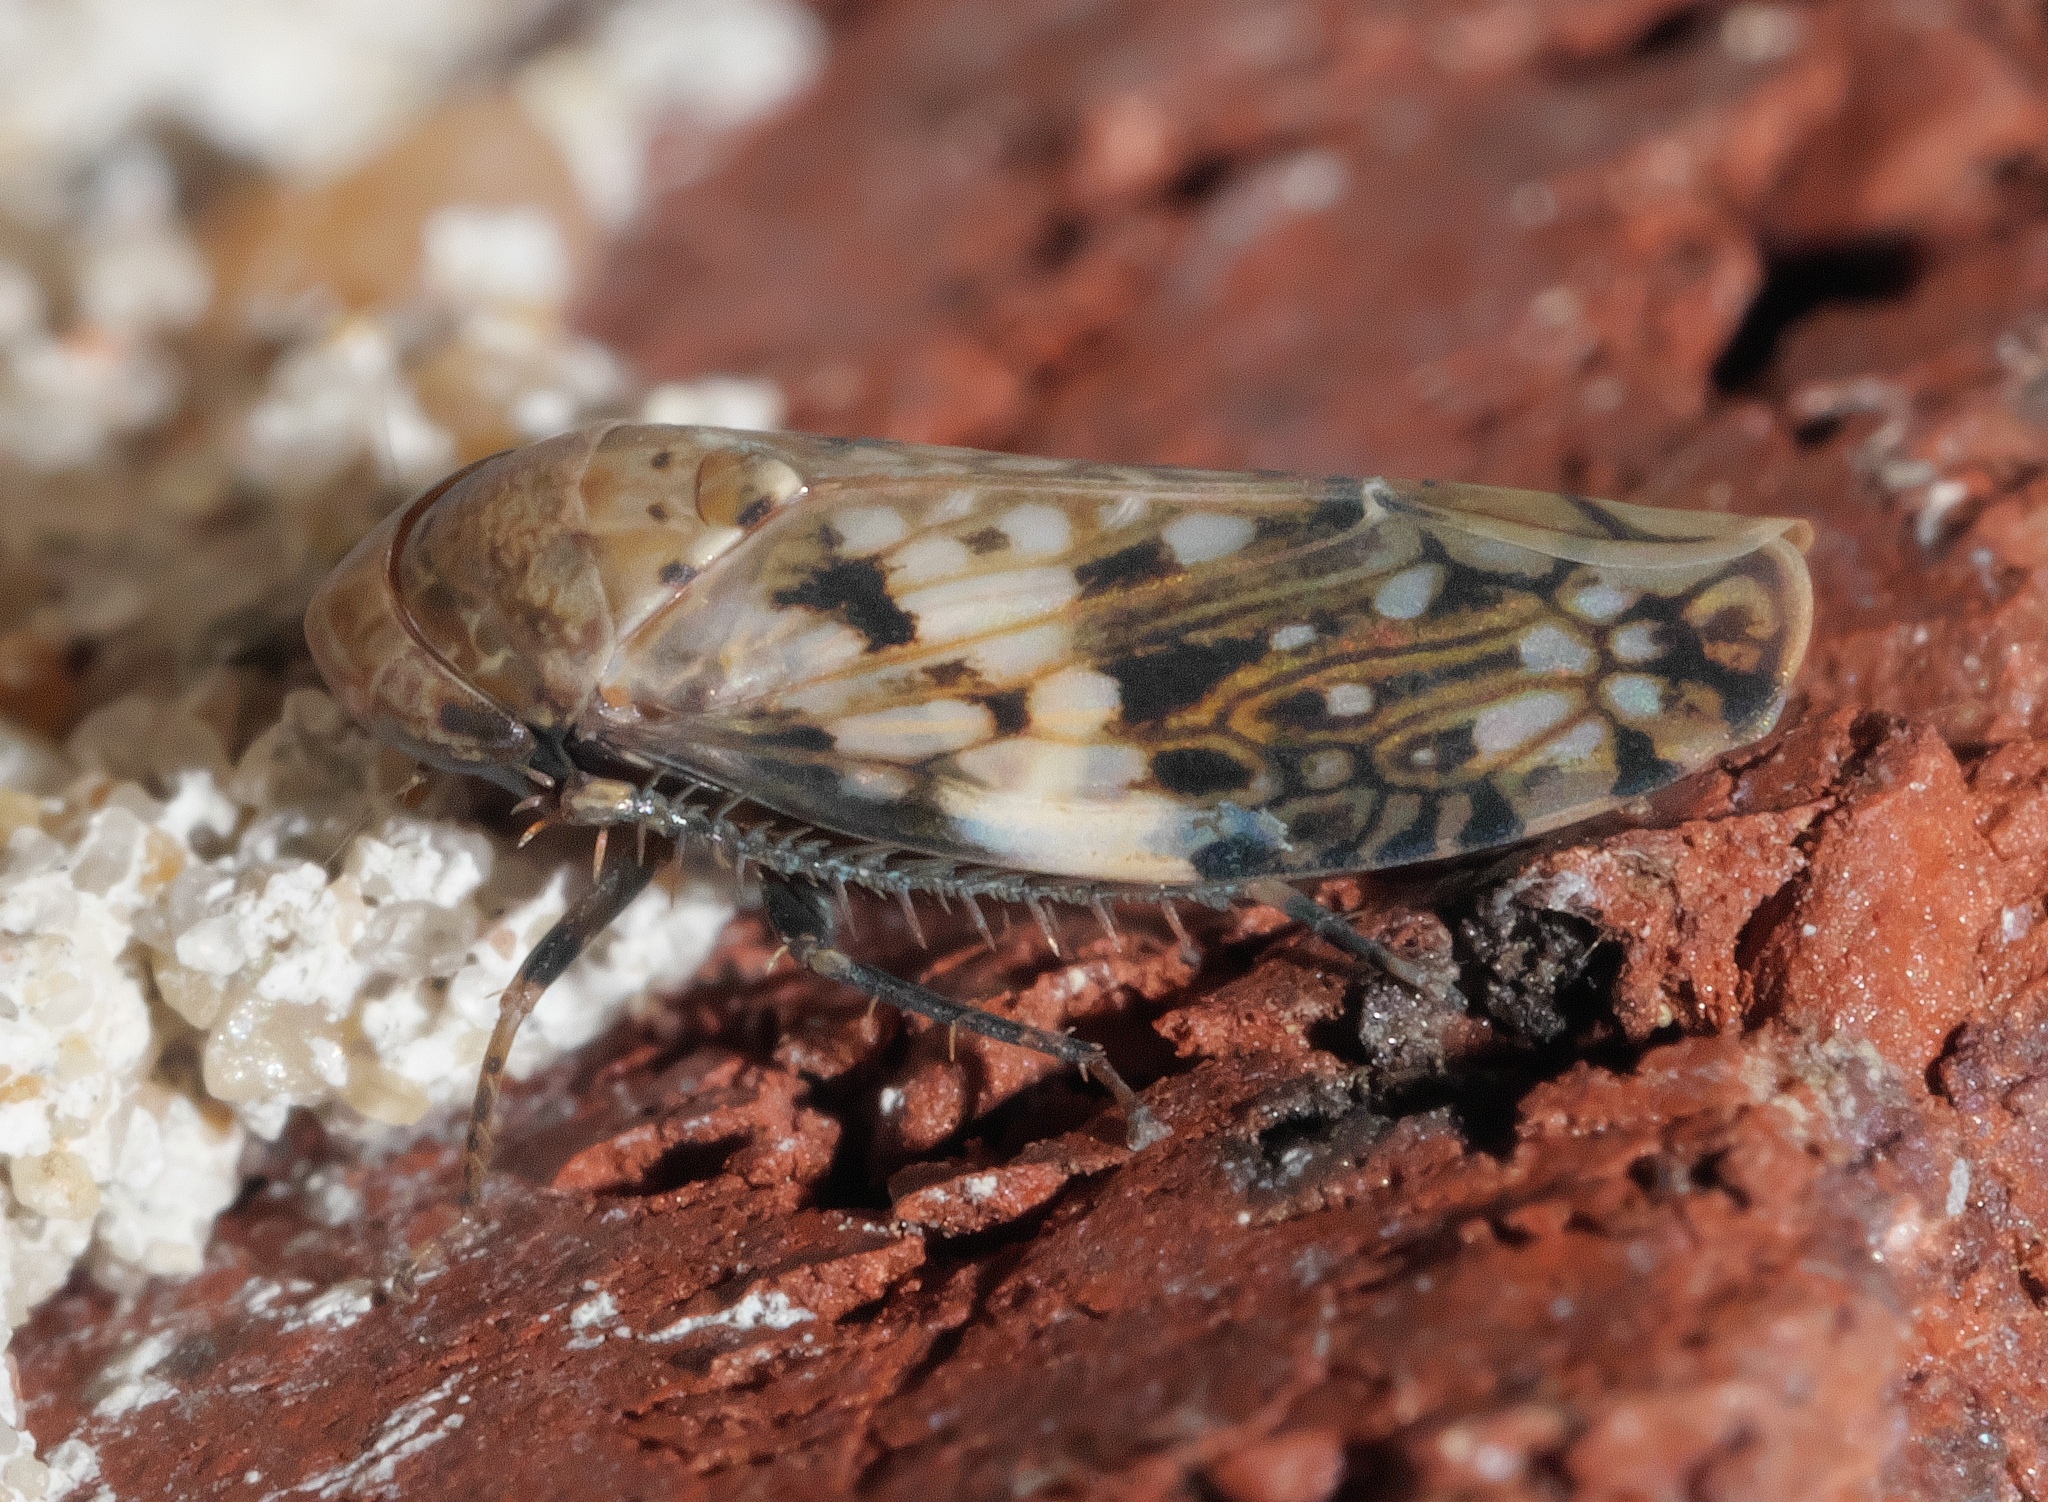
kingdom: Animalia
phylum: Arthropoda
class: Insecta
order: Hemiptera
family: Cicadellidae
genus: Menosoma
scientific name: Menosoma cinctum
